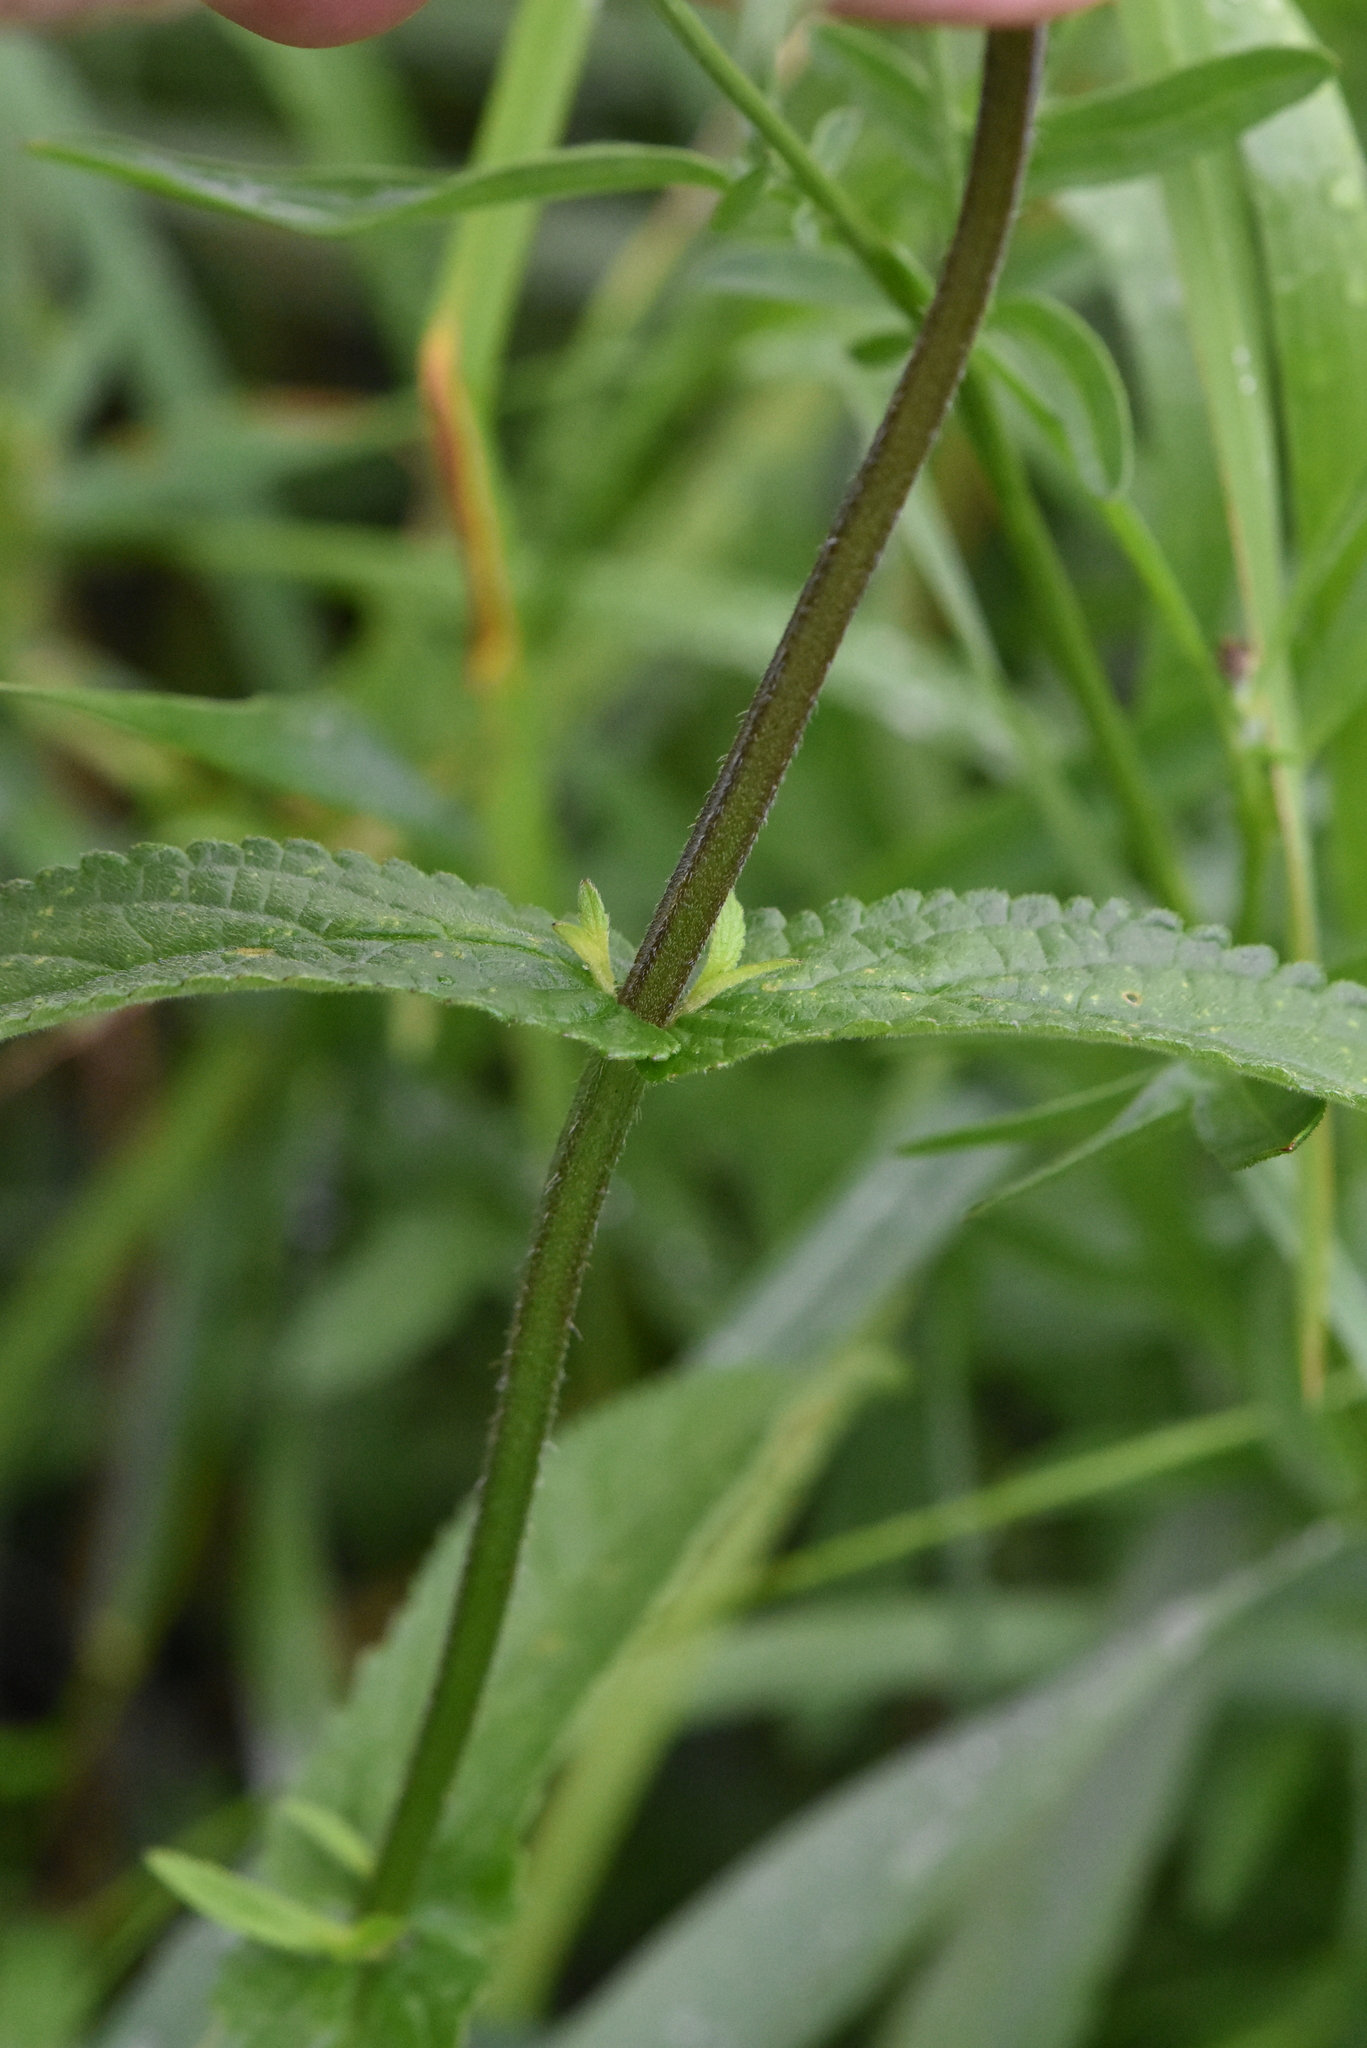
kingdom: Plantae
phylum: Tracheophyta
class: Magnoliopsida
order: Lamiales
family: Lamiaceae
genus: Stachys
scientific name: Stachys palustris
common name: Marsh woundwort
